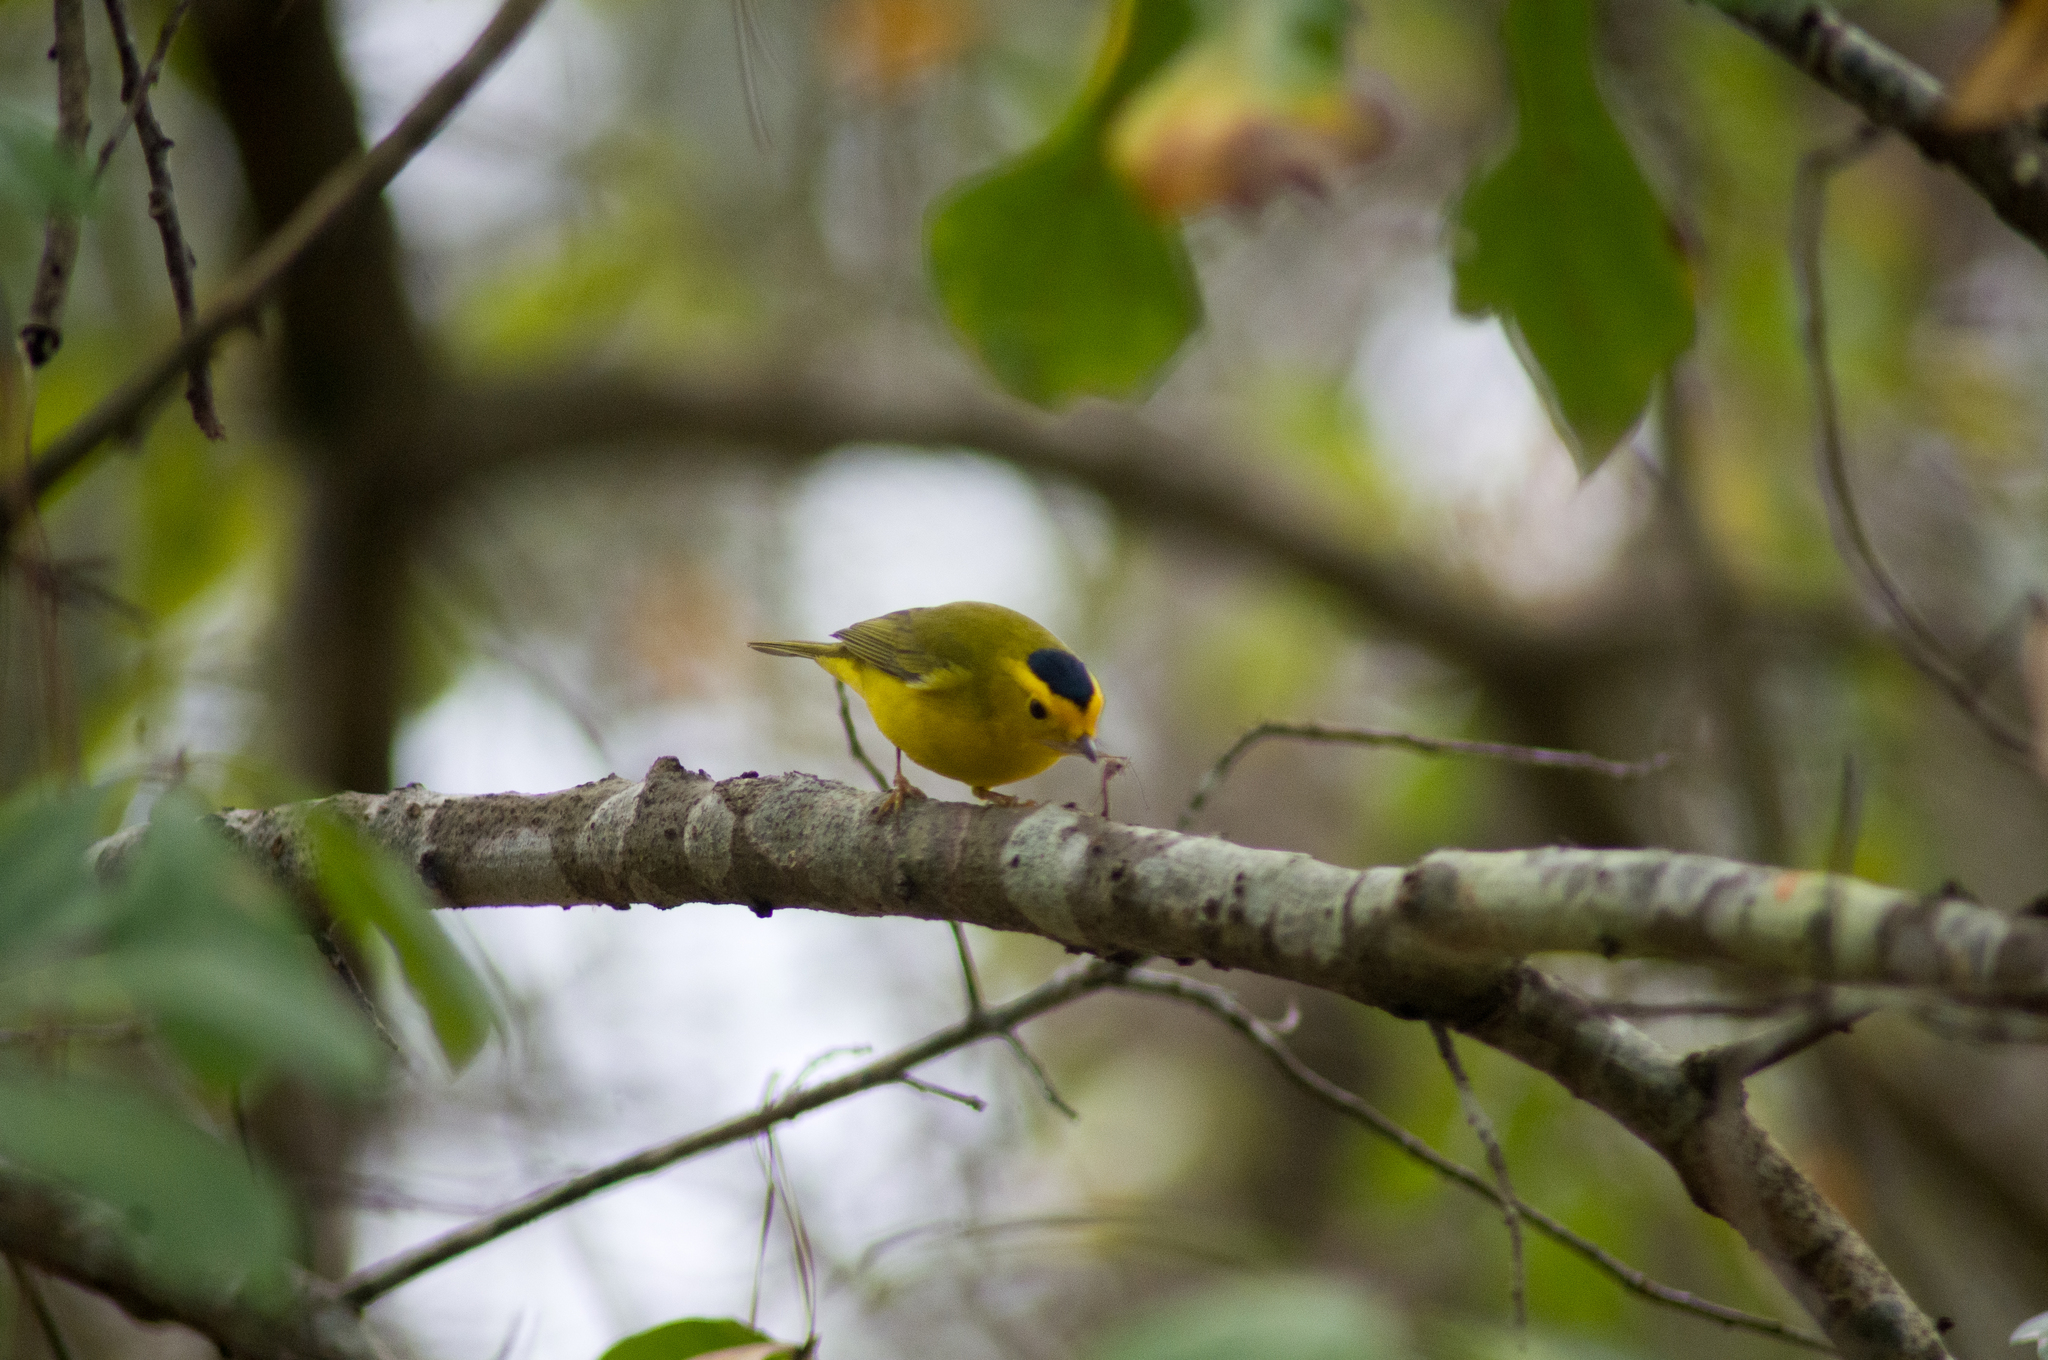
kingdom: Animalia
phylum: Chordata
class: Aves
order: Passeriformes
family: Parulidae
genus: Cardellina
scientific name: Cardellina pusilla
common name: Wilson's warbler
